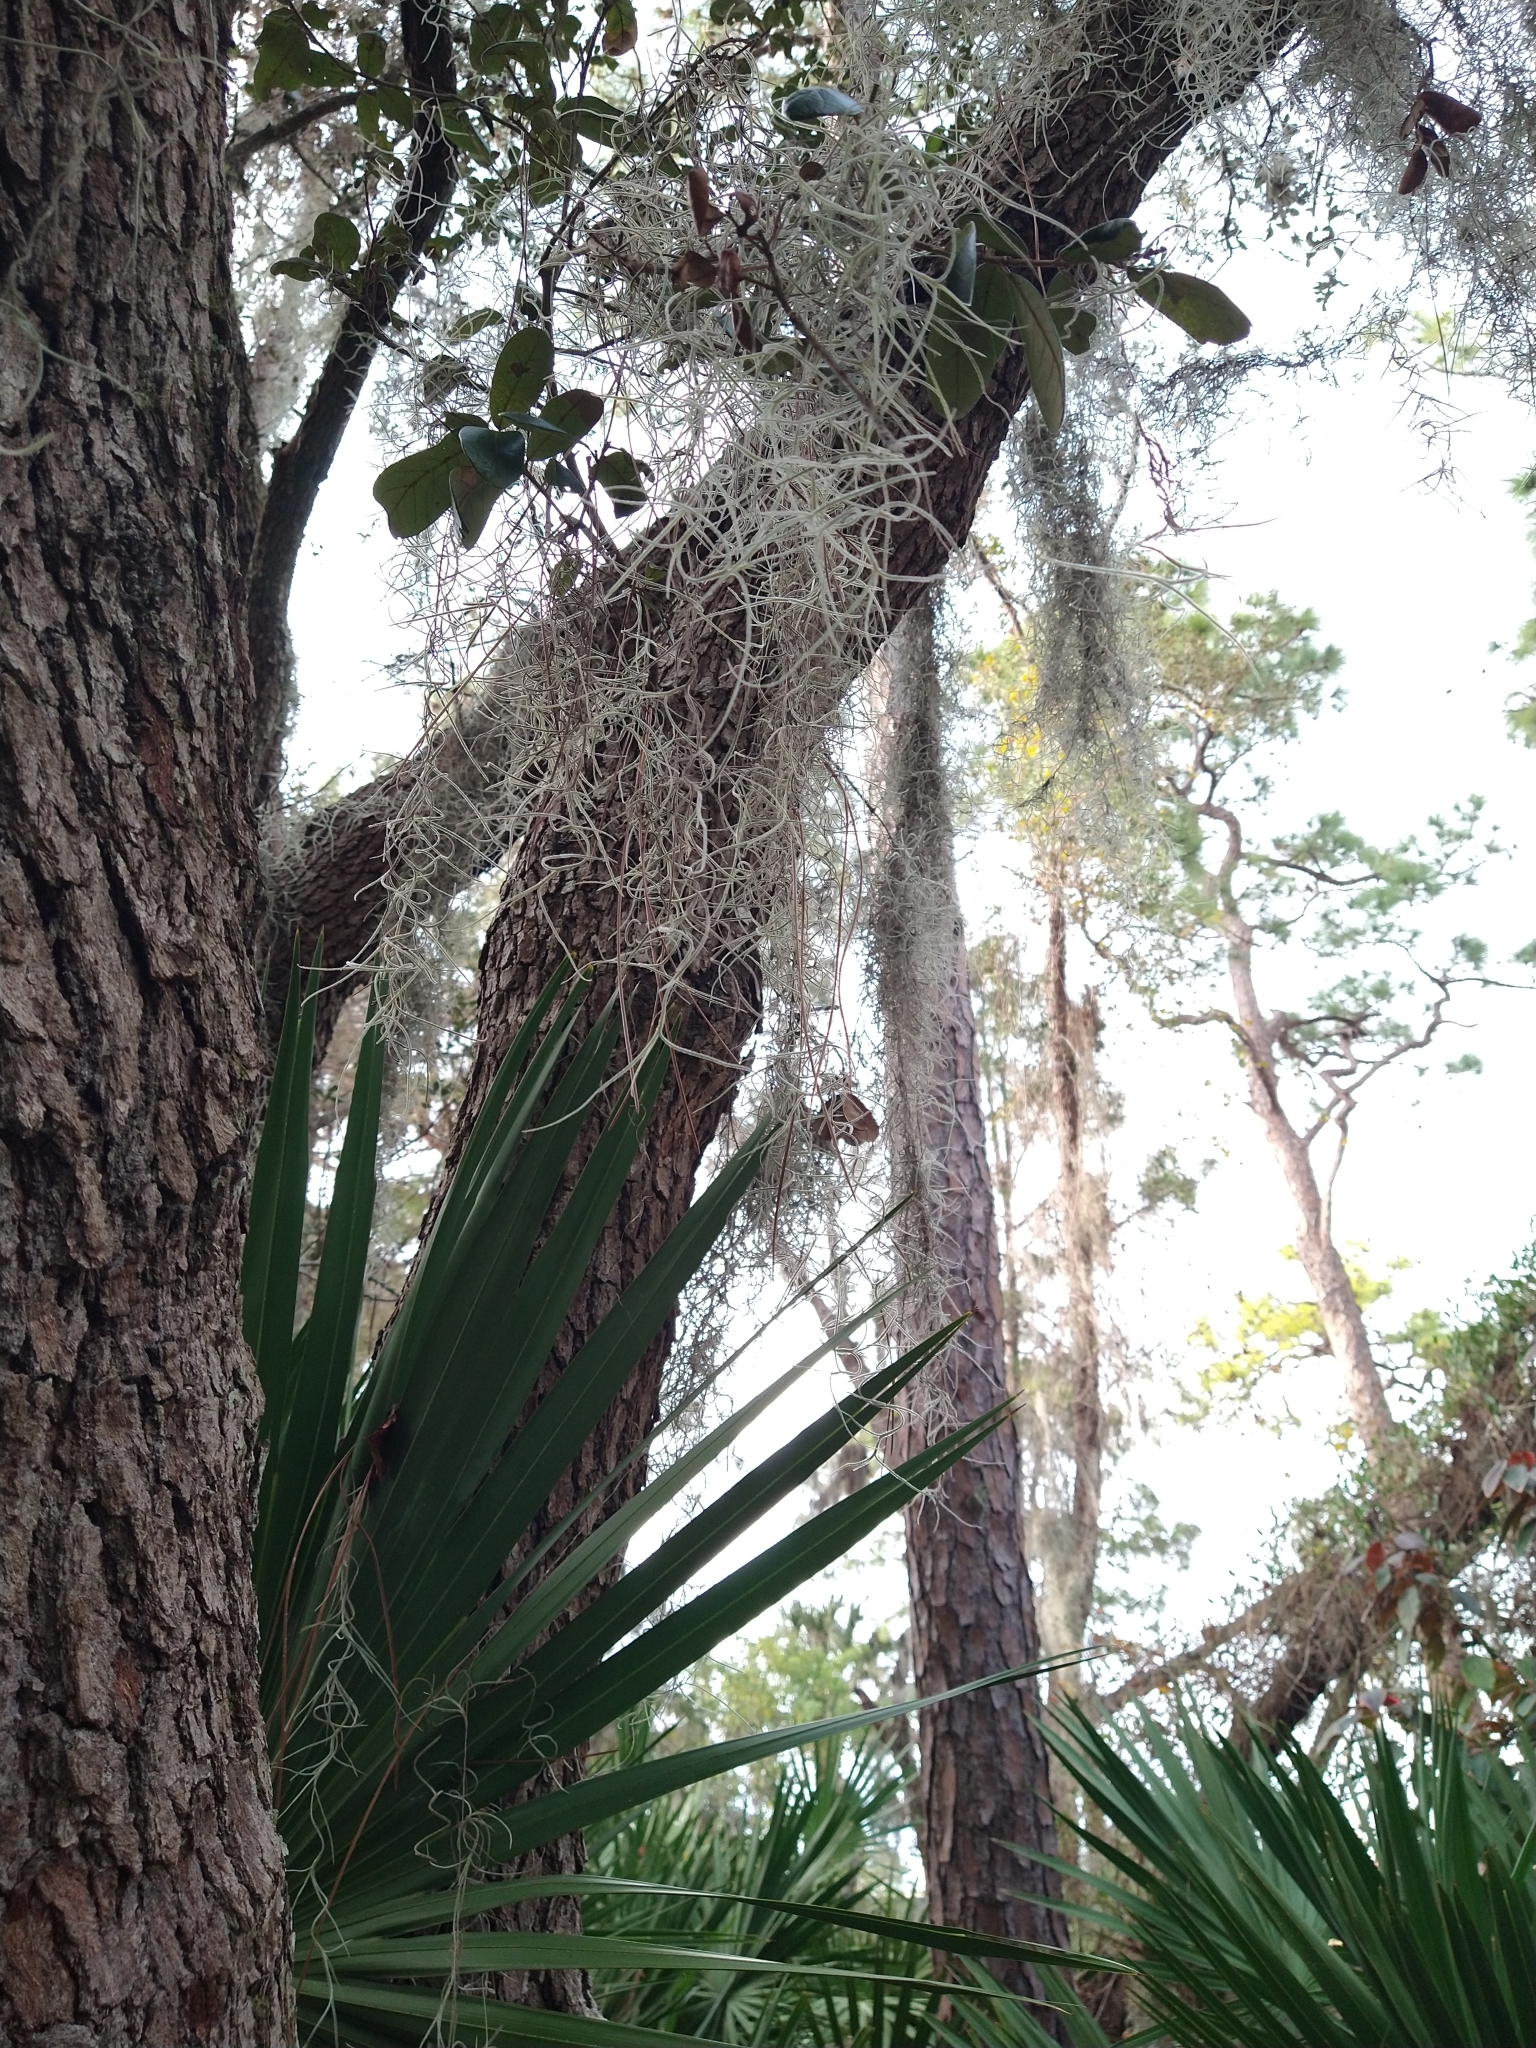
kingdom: Plantae
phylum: Tracheophyta
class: Liliopsida
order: Poales
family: Bromeliaceae
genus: Tillandsia
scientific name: Tillandsia usneoides
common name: Spanish moss
